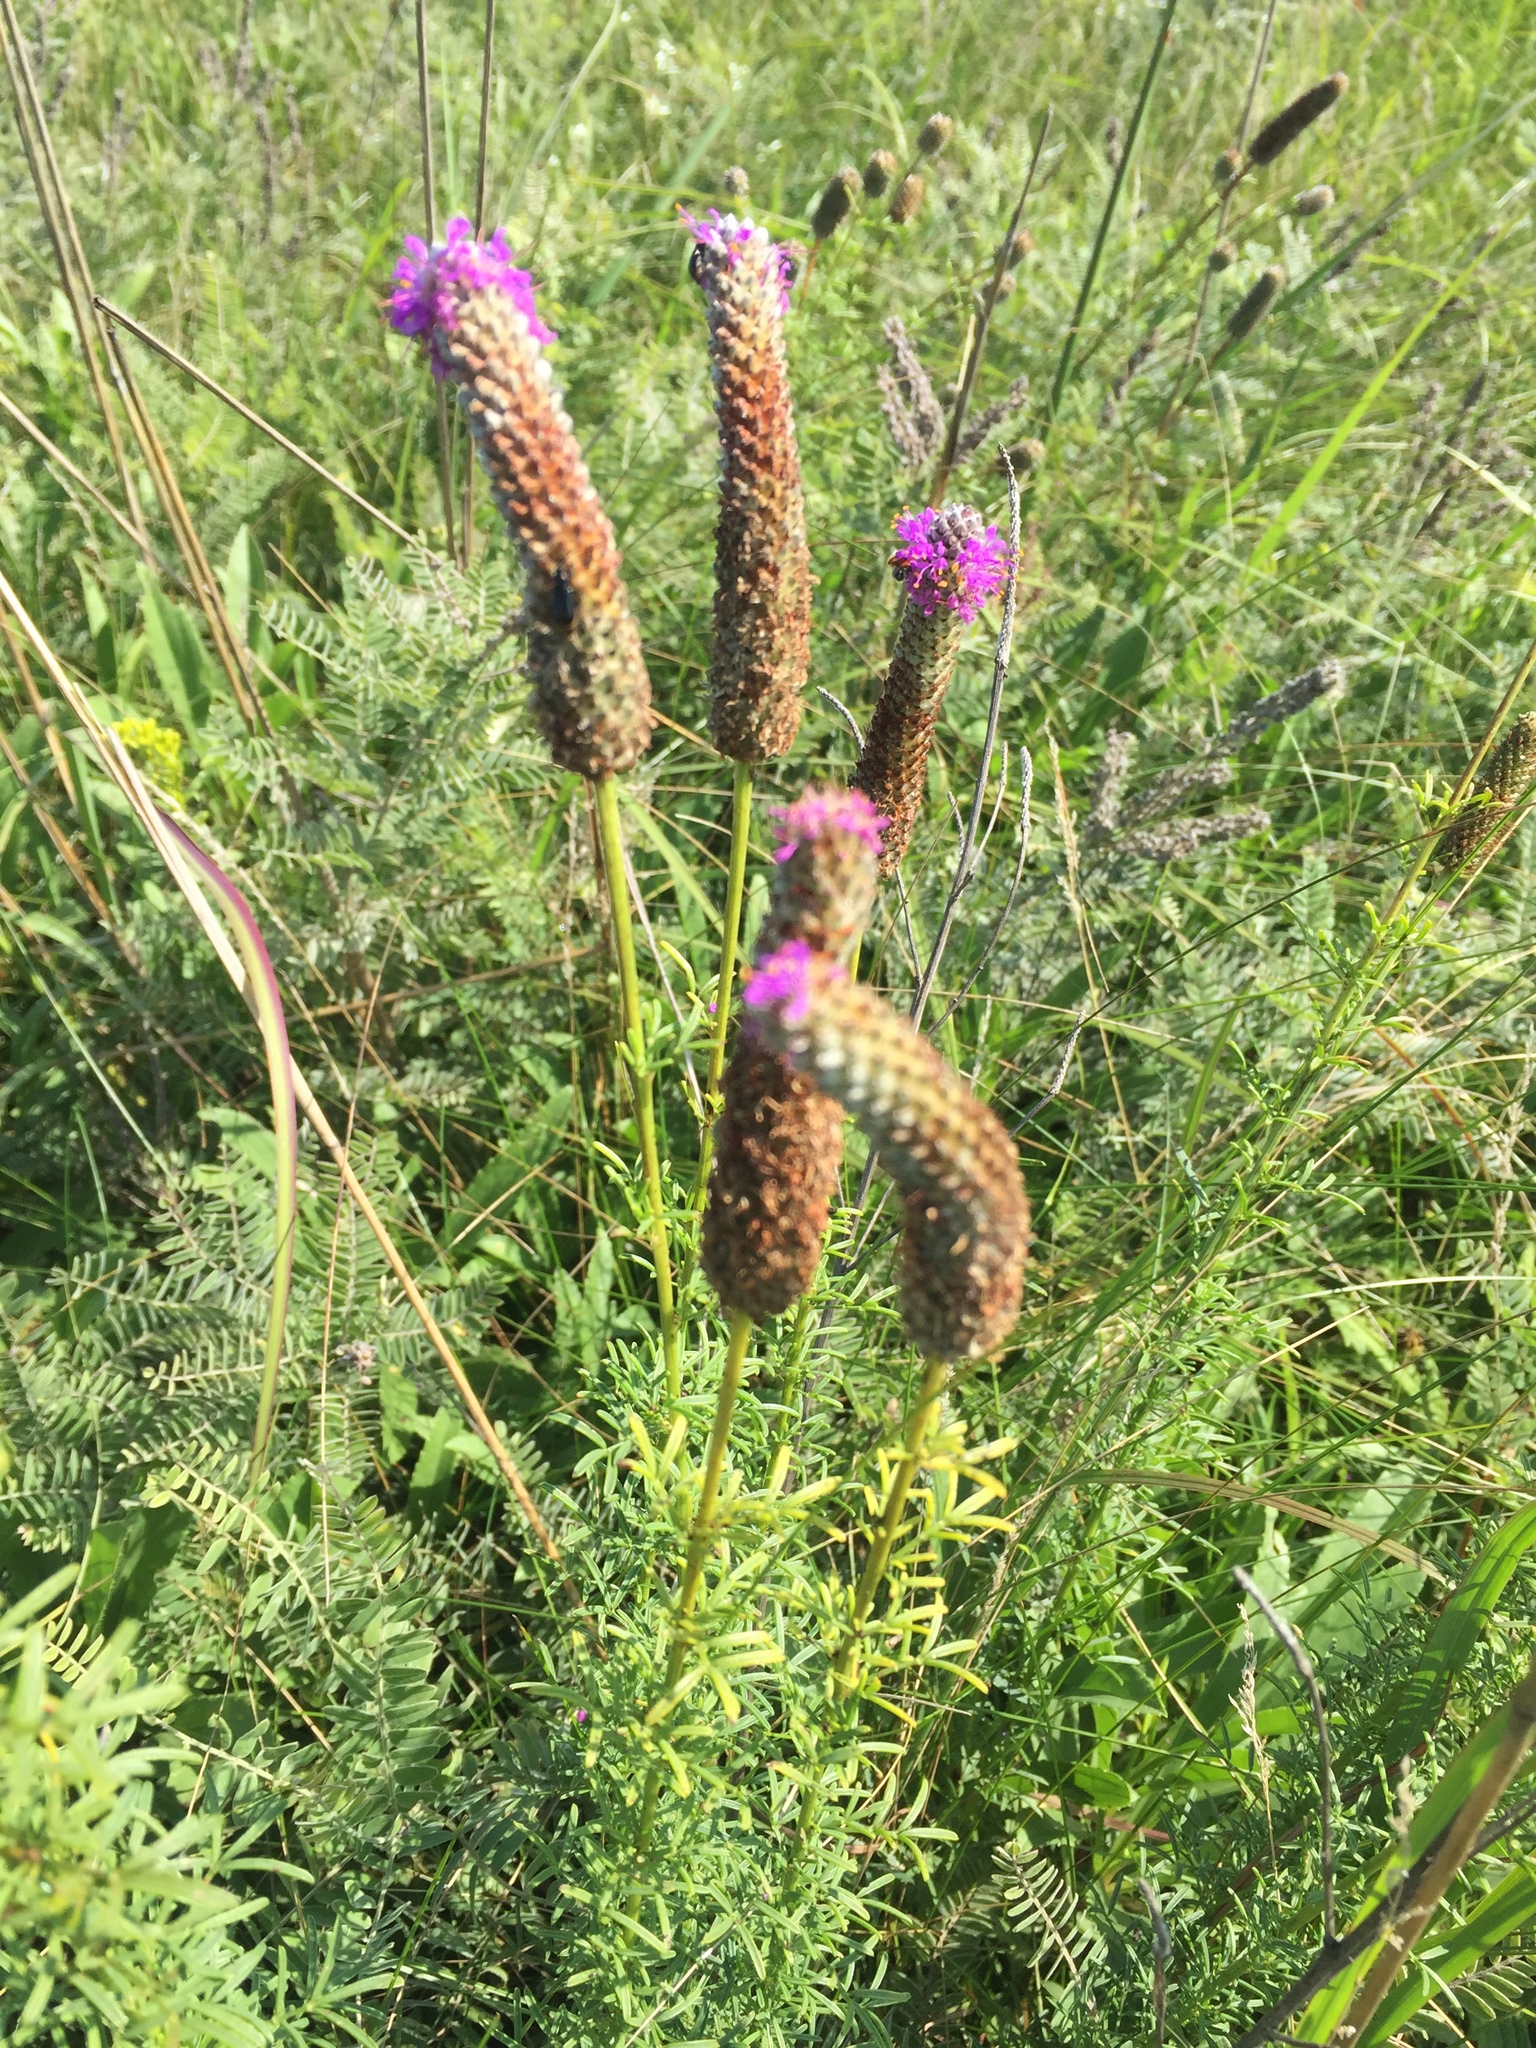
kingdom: Plantae
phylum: Tracheophyta
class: Magnoliopsida
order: Fabales
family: Fabaceae
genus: Dalea
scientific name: Dalea purpurea
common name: Purple prairie-clover
